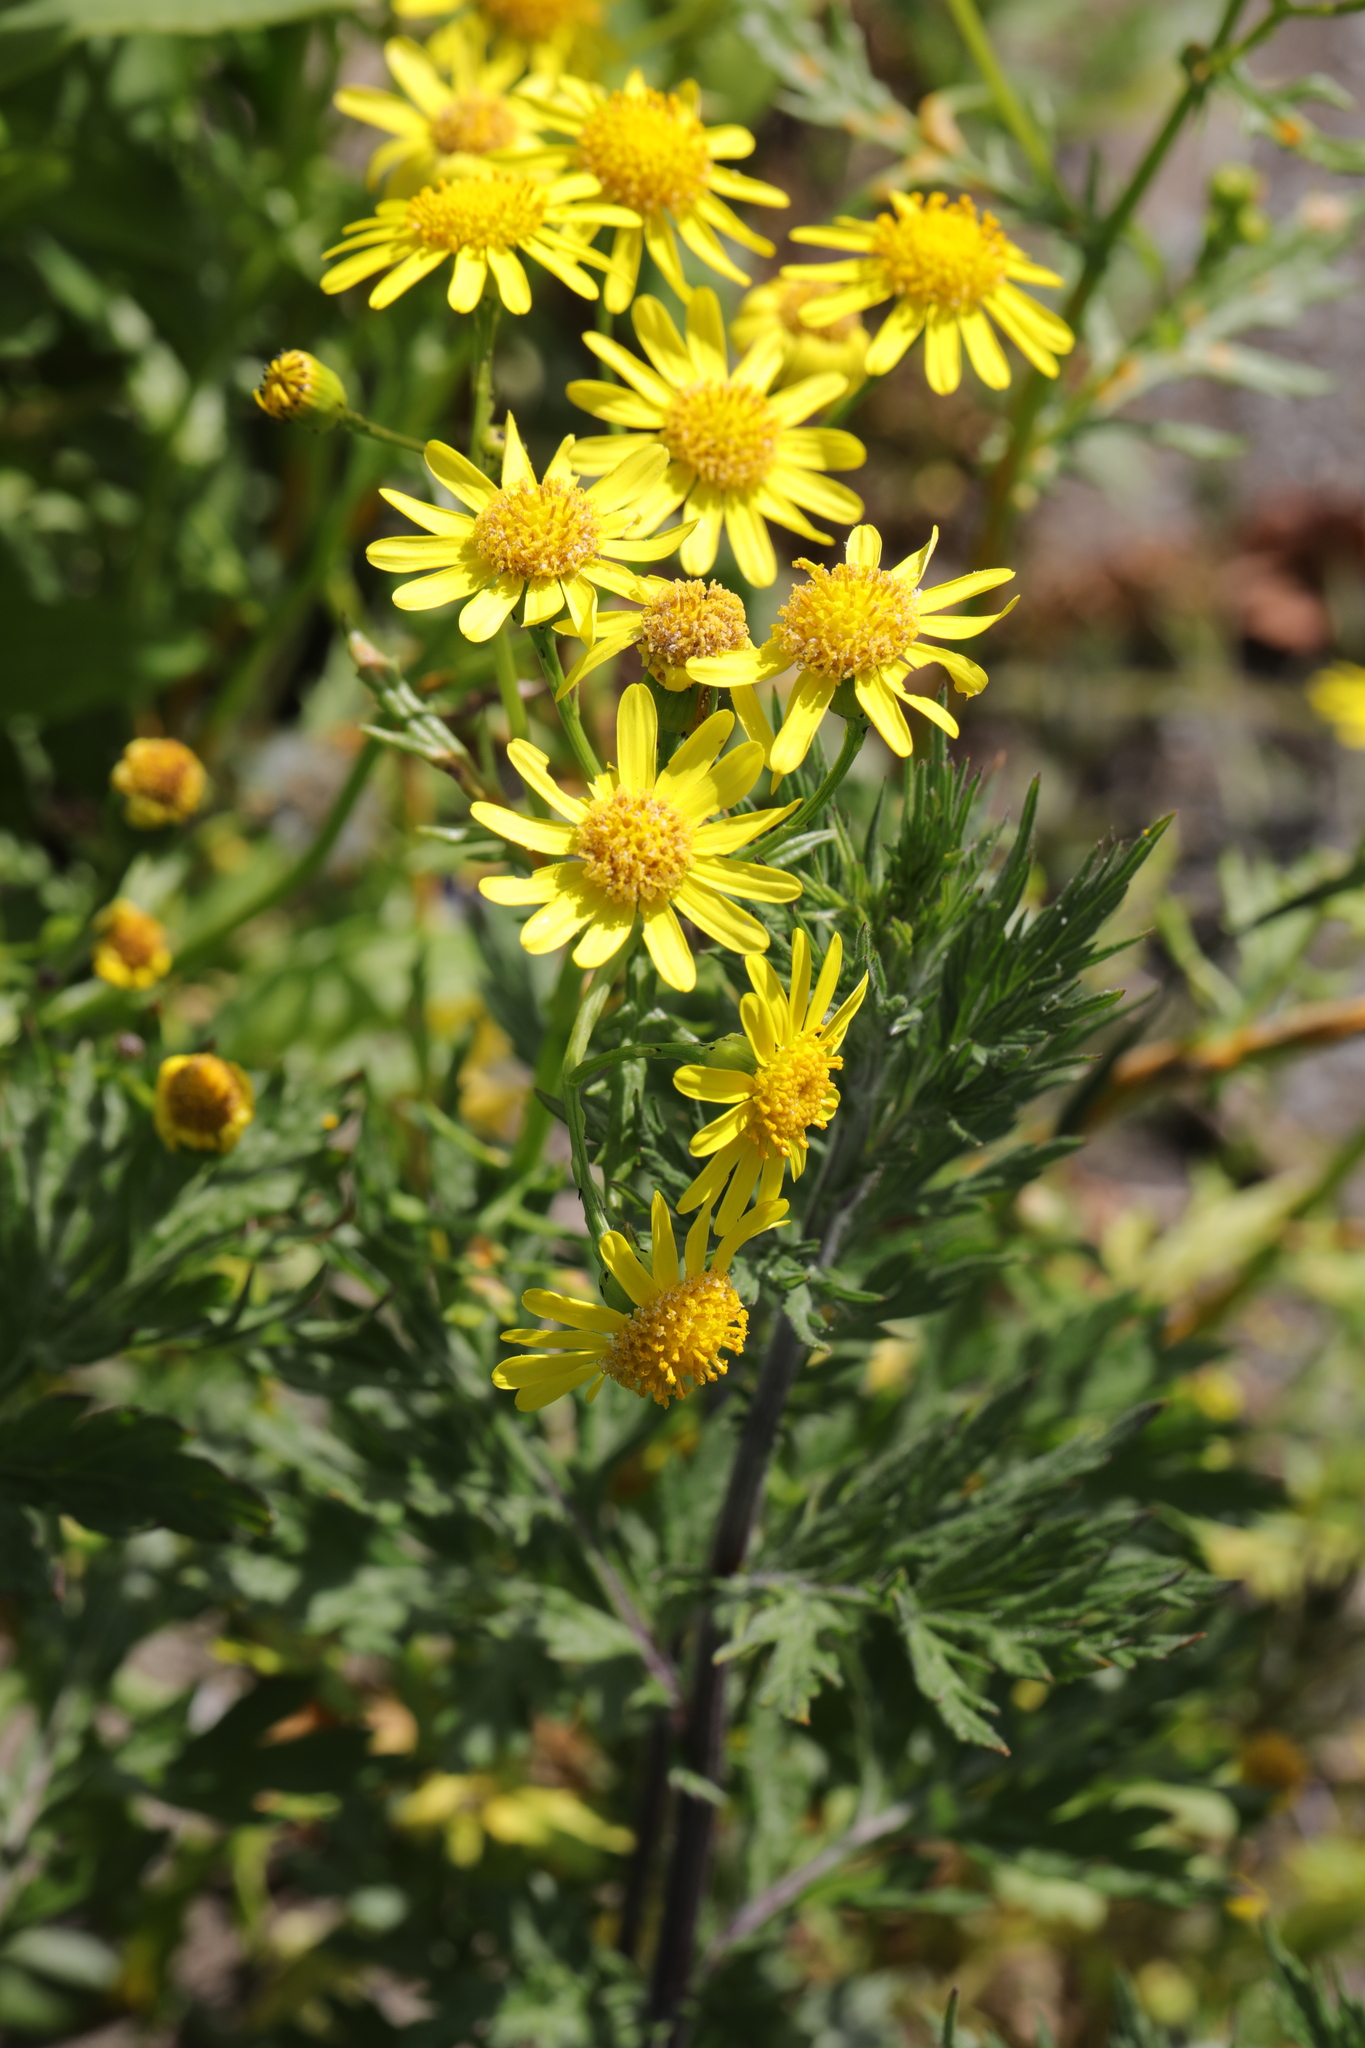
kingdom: Plantae
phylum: Tracheophyta
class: Magnoliopsida
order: Asterales
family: Asteraceae
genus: Senecio
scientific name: Senecio squalidus
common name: Oxford ragwort
